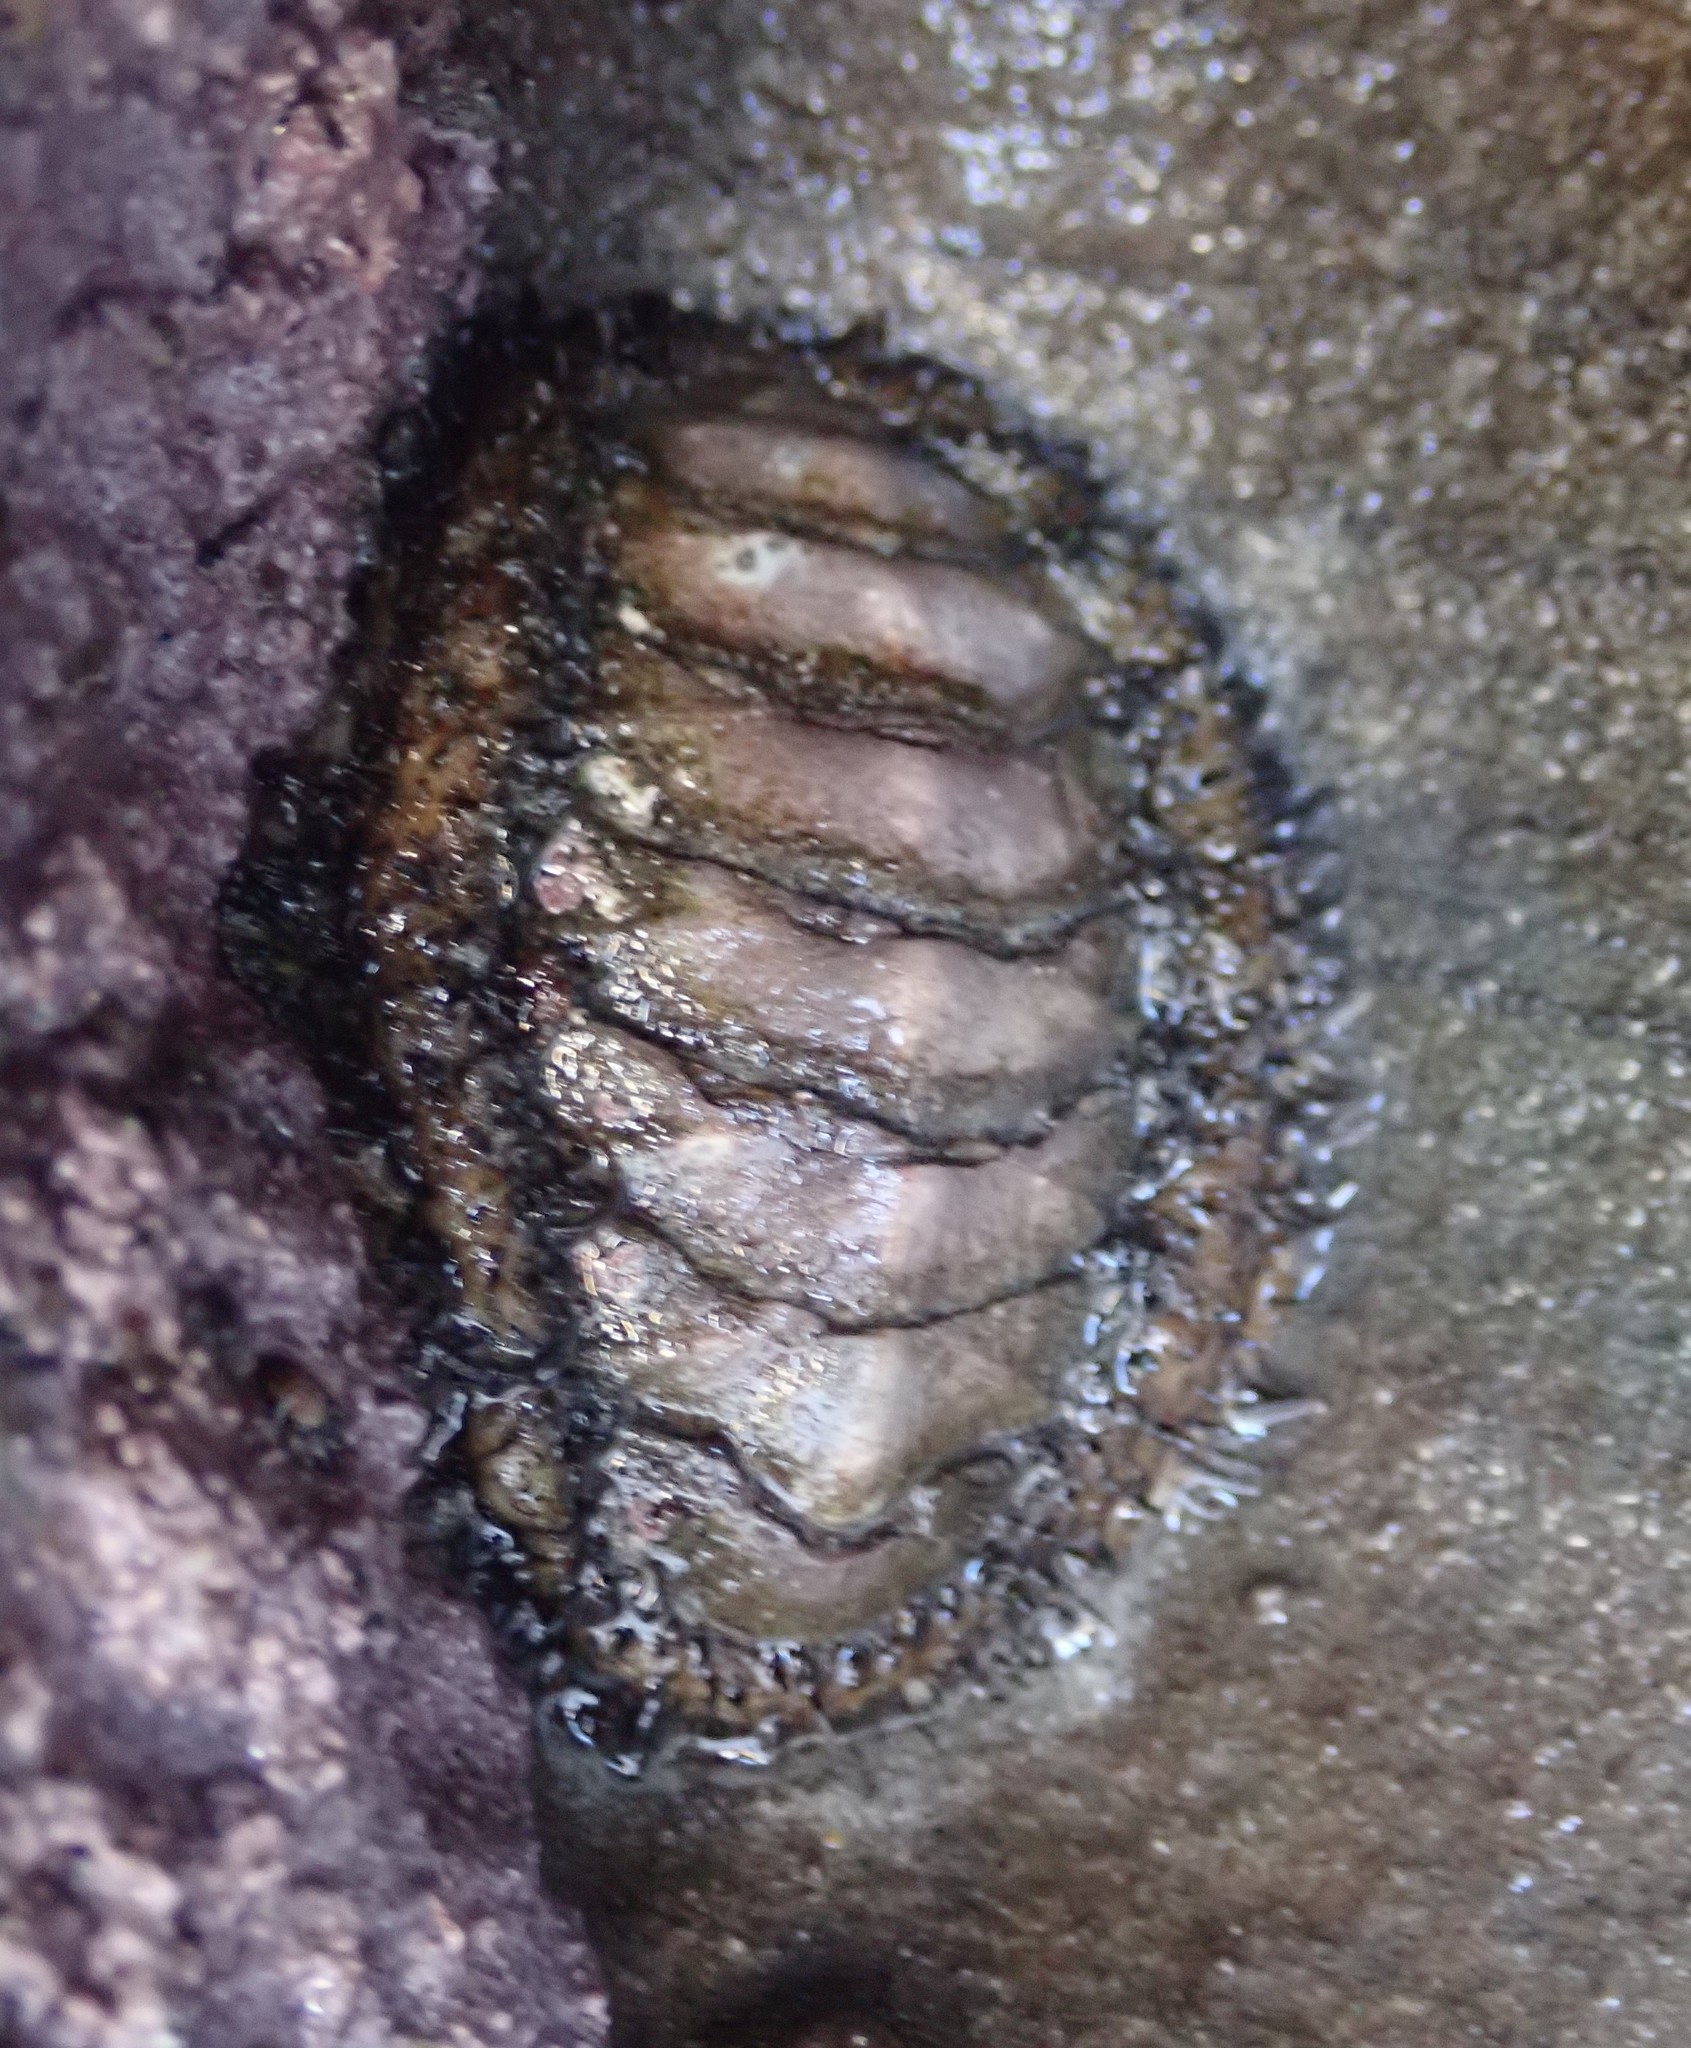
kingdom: Animalia
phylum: Mollusca
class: Polyplacophora
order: Chitonida
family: Mopaliidae
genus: Mopalia
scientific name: Mopalia muscosa
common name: Mossy chiton
